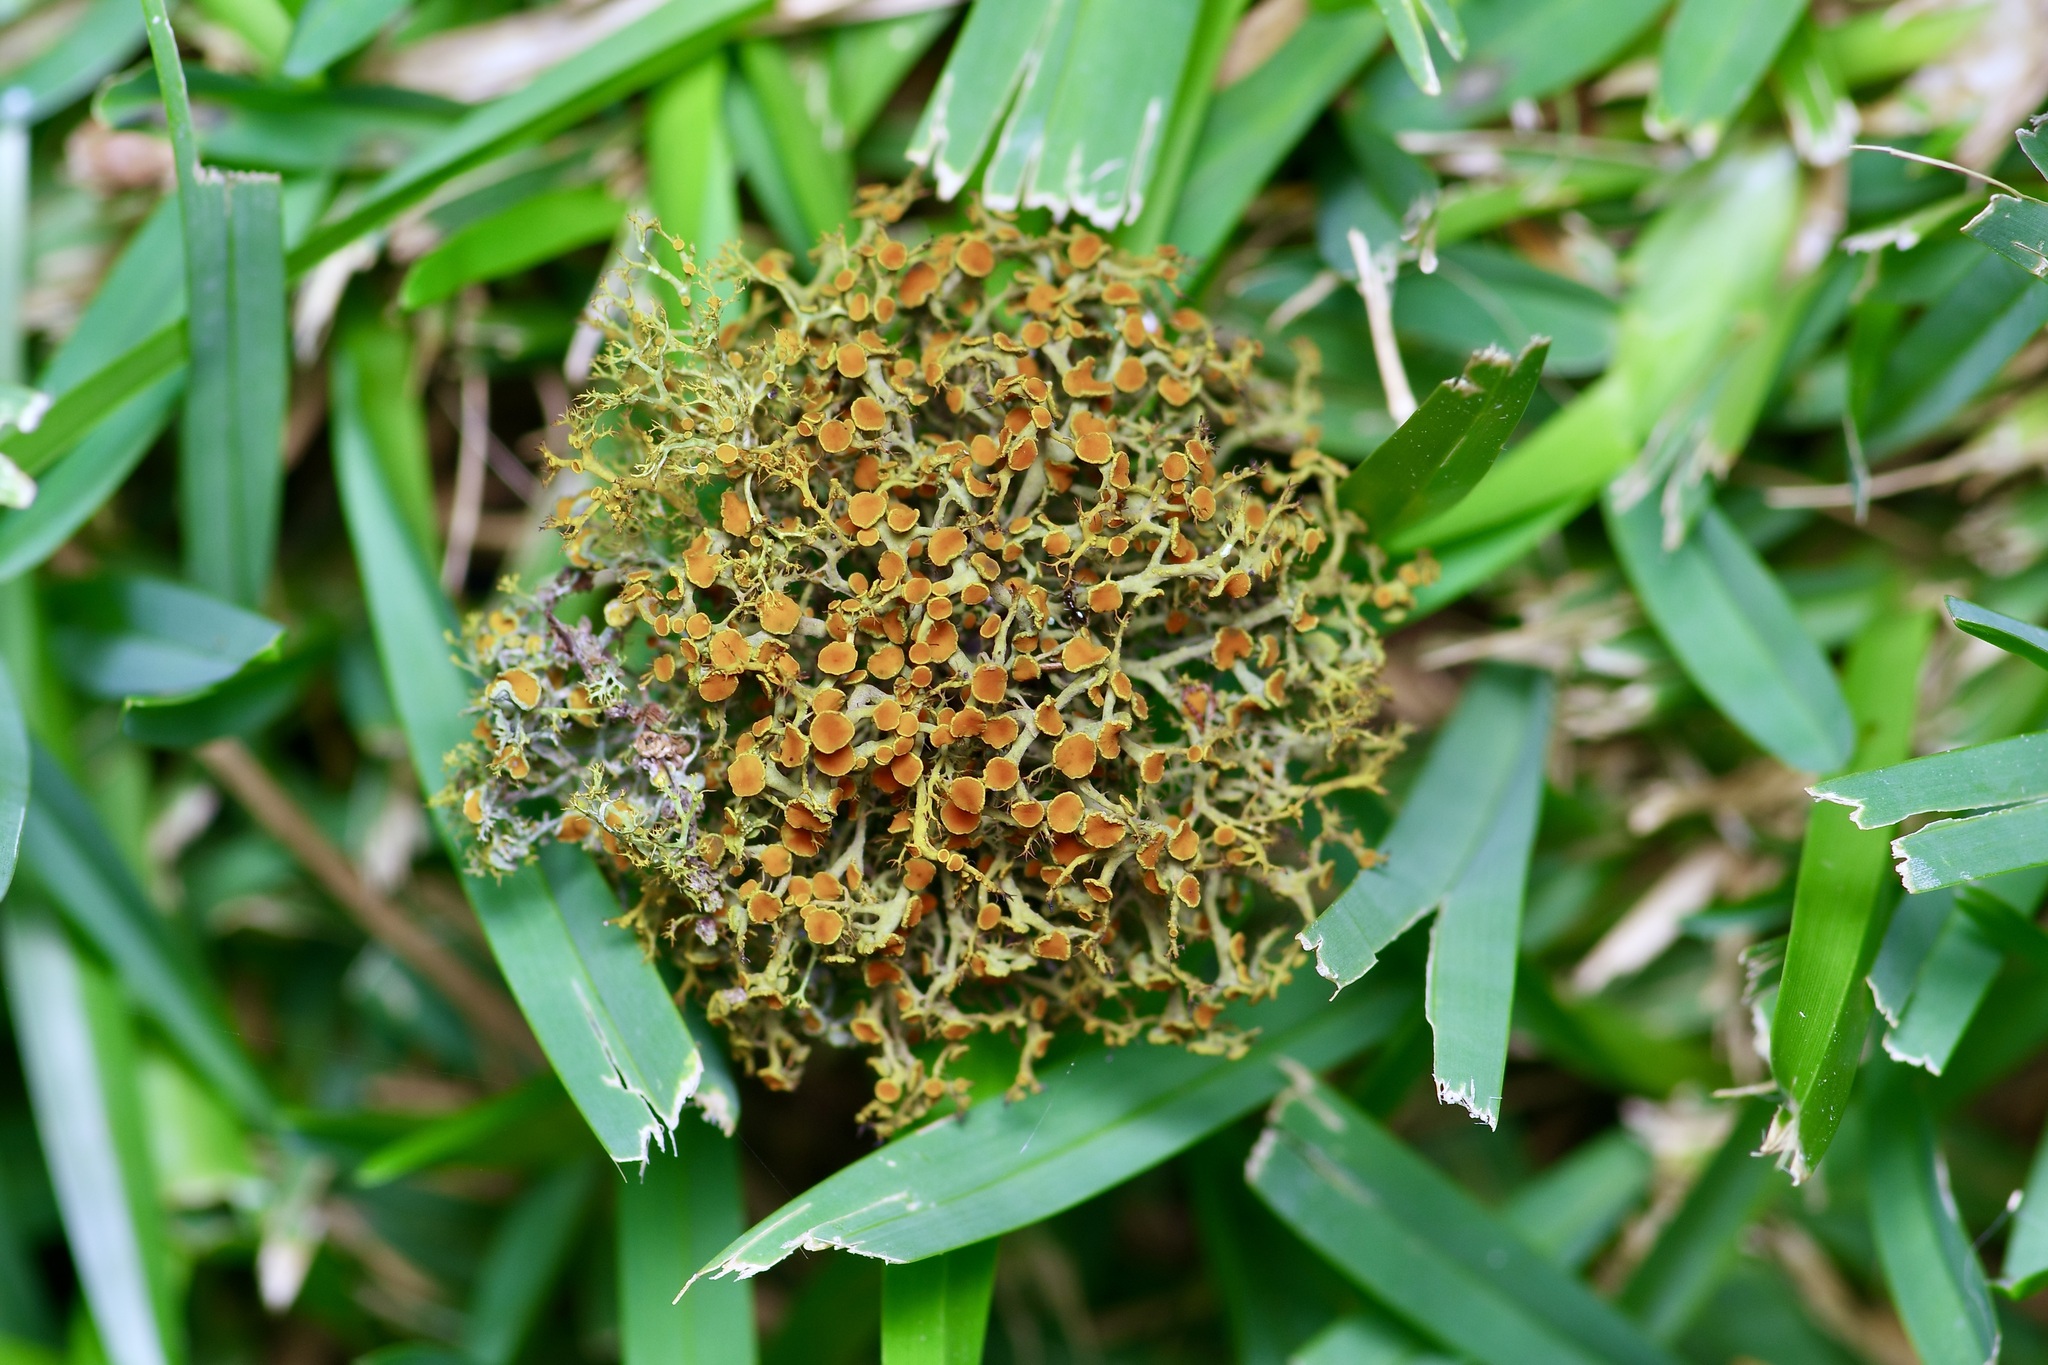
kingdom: Fungi
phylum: Ascomycota
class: Lecanoromycetes
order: Teloschistales
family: Teloschistaceae
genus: Teloschistes
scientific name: Teloschistes exilis
